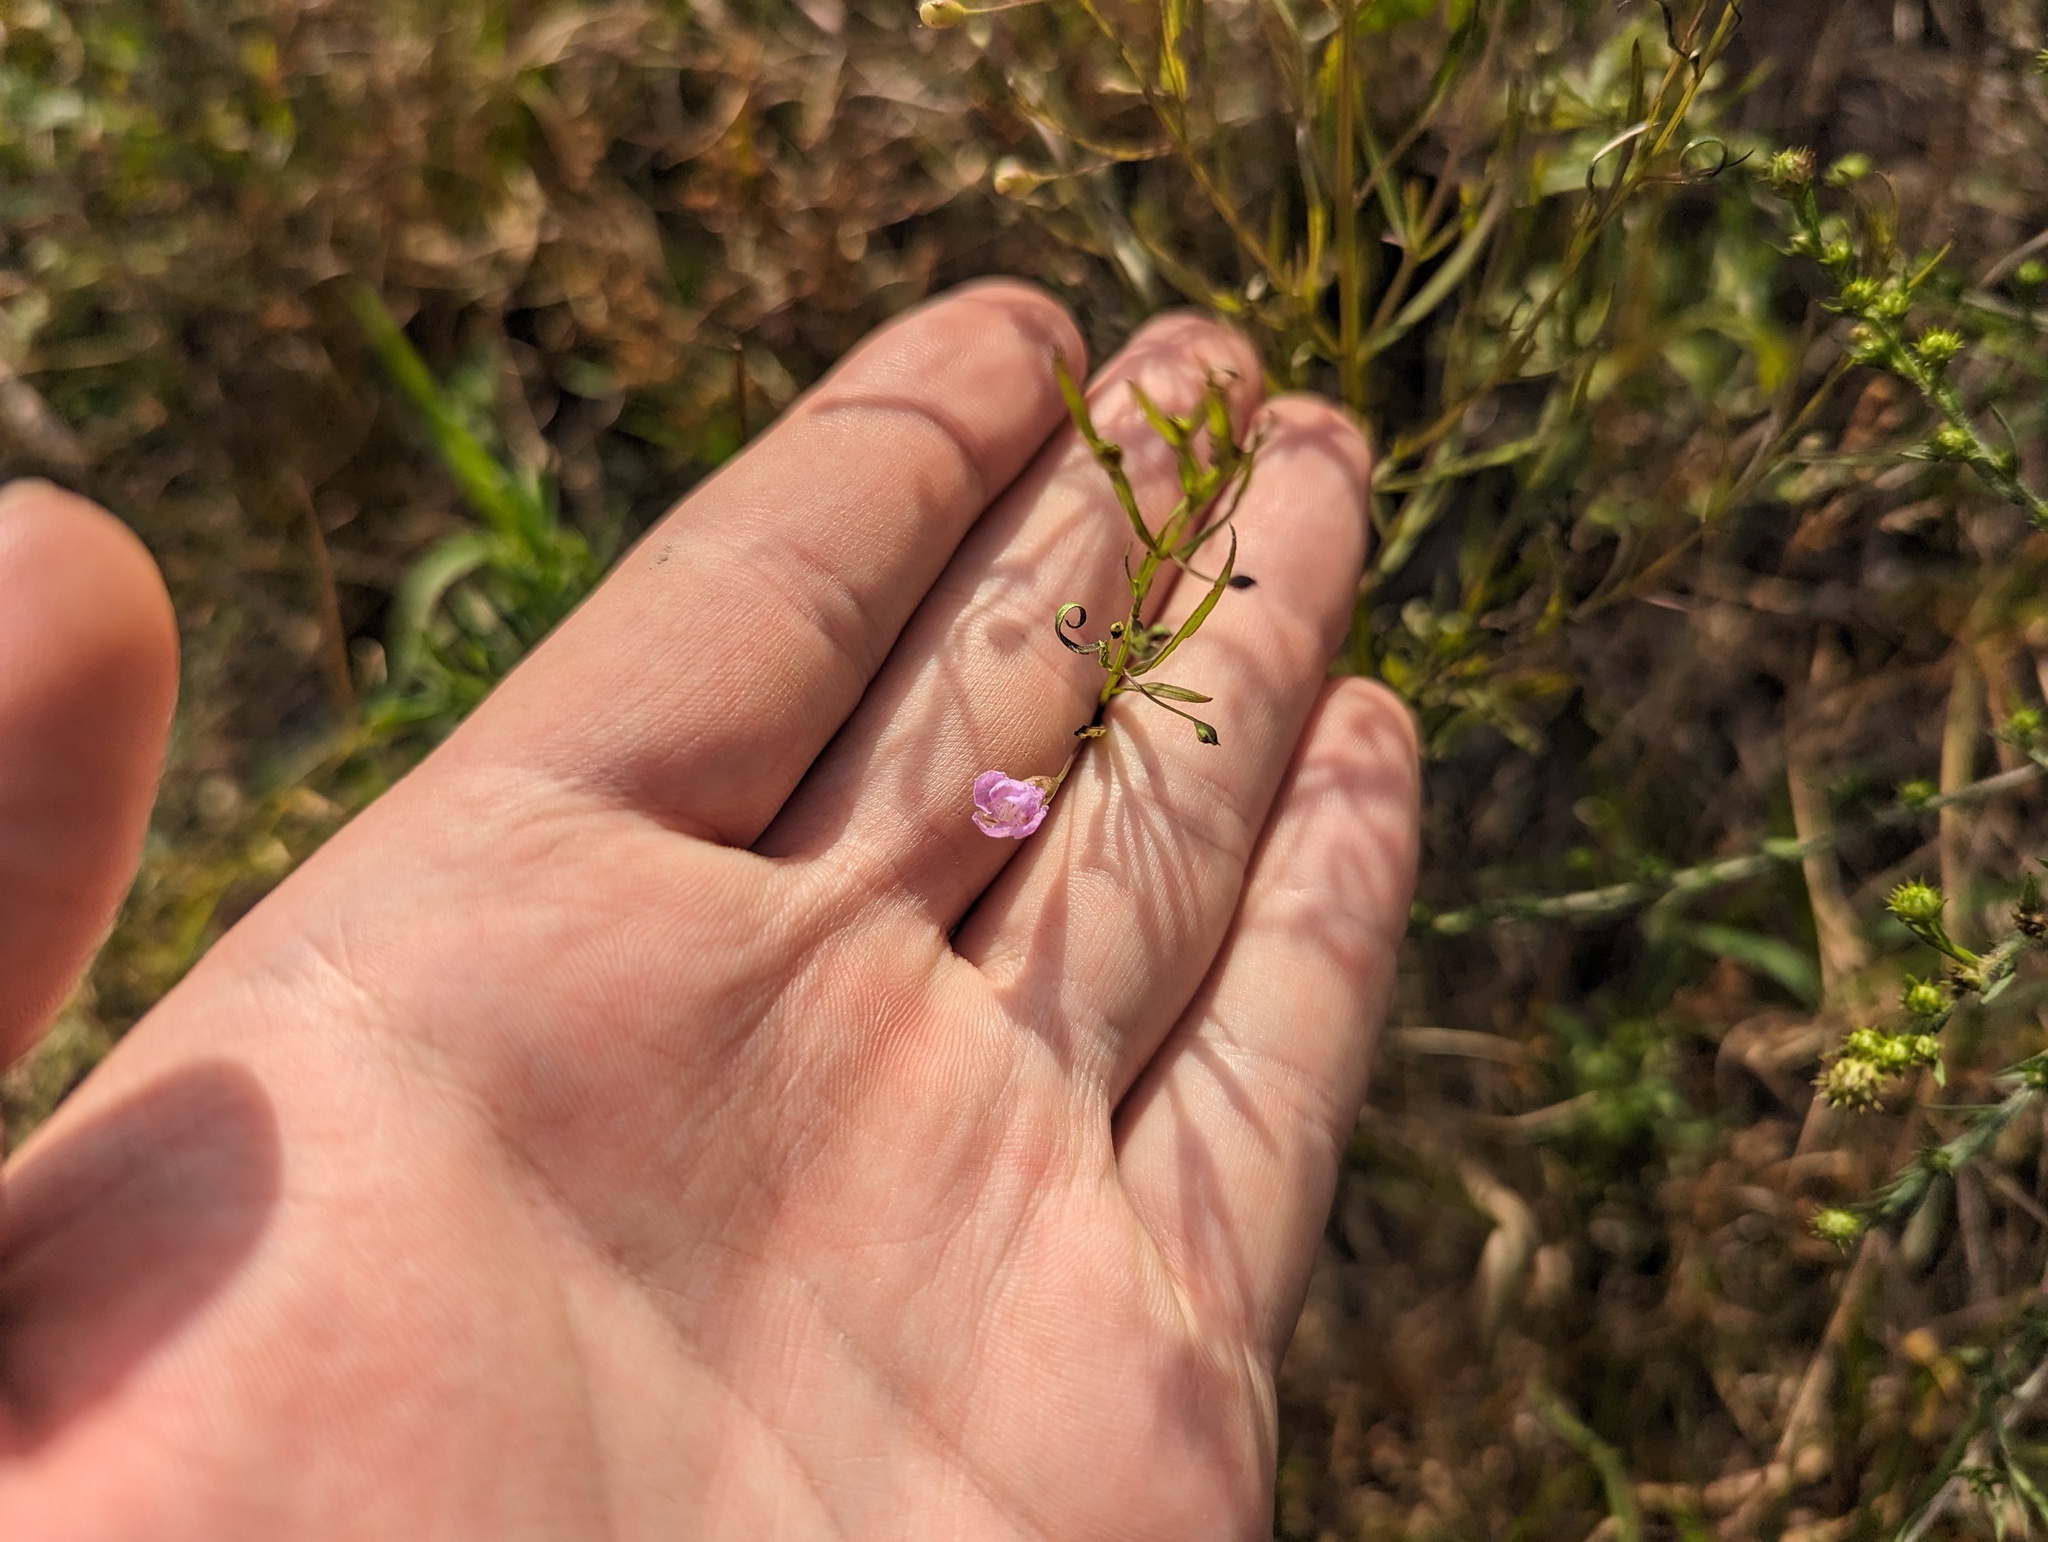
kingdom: Plantae
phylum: Tracheophyta
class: Magnoliopsida
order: Lamiales
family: Orobanchaceae
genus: Agalinis
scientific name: Agalinis tenuifolia
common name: Slender agalinis
